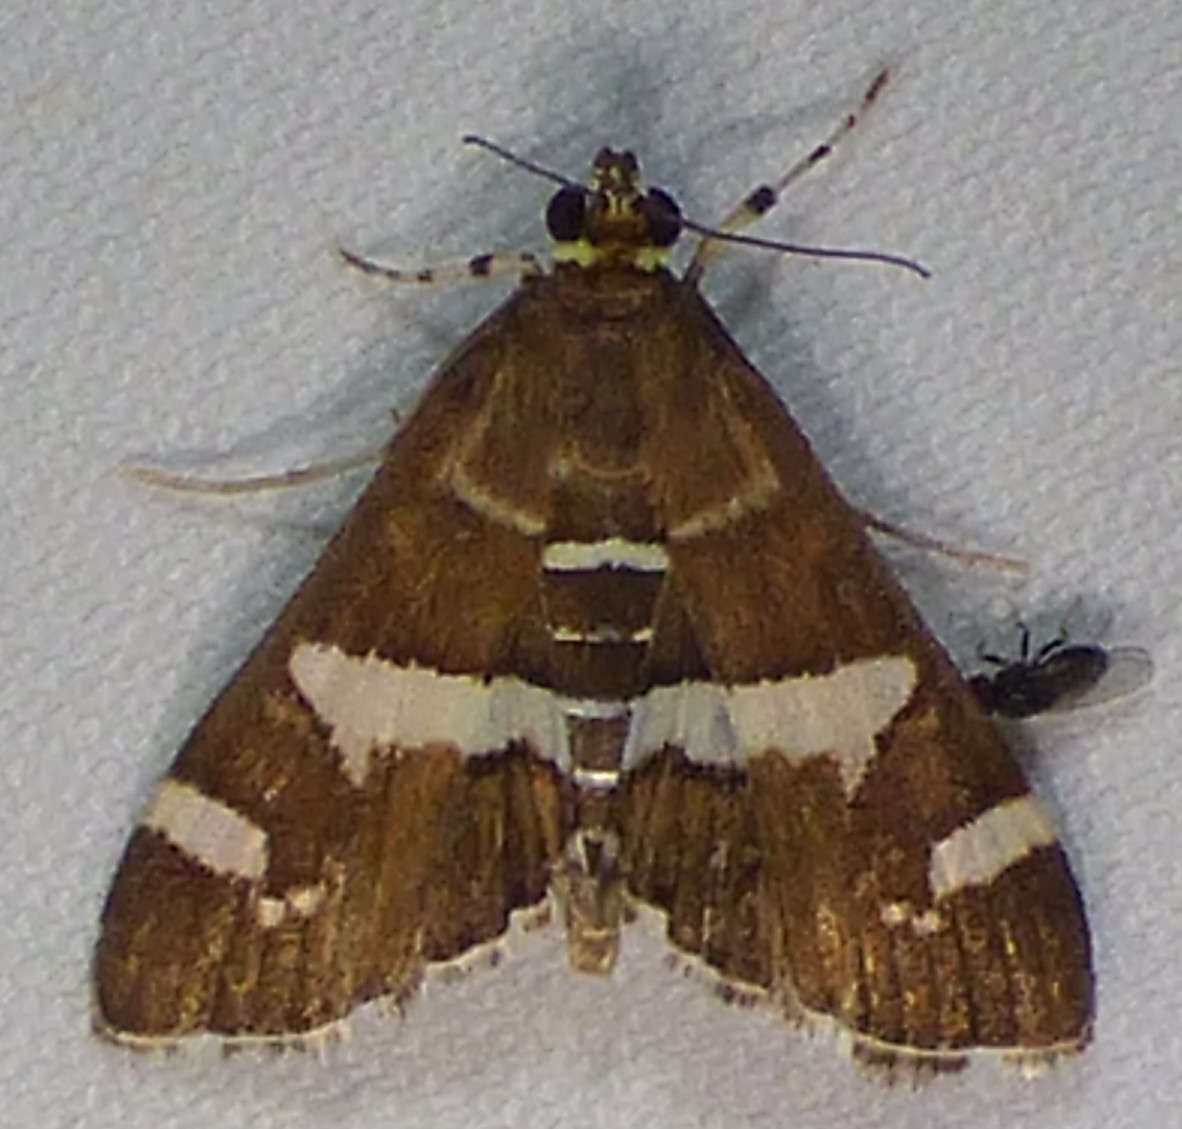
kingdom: Animalia
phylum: Arthropoda
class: Insecta
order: Lepidoptera
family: Crambidae
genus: Spoladea
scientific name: Spoladea recurvalis
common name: Beet webworm moth
